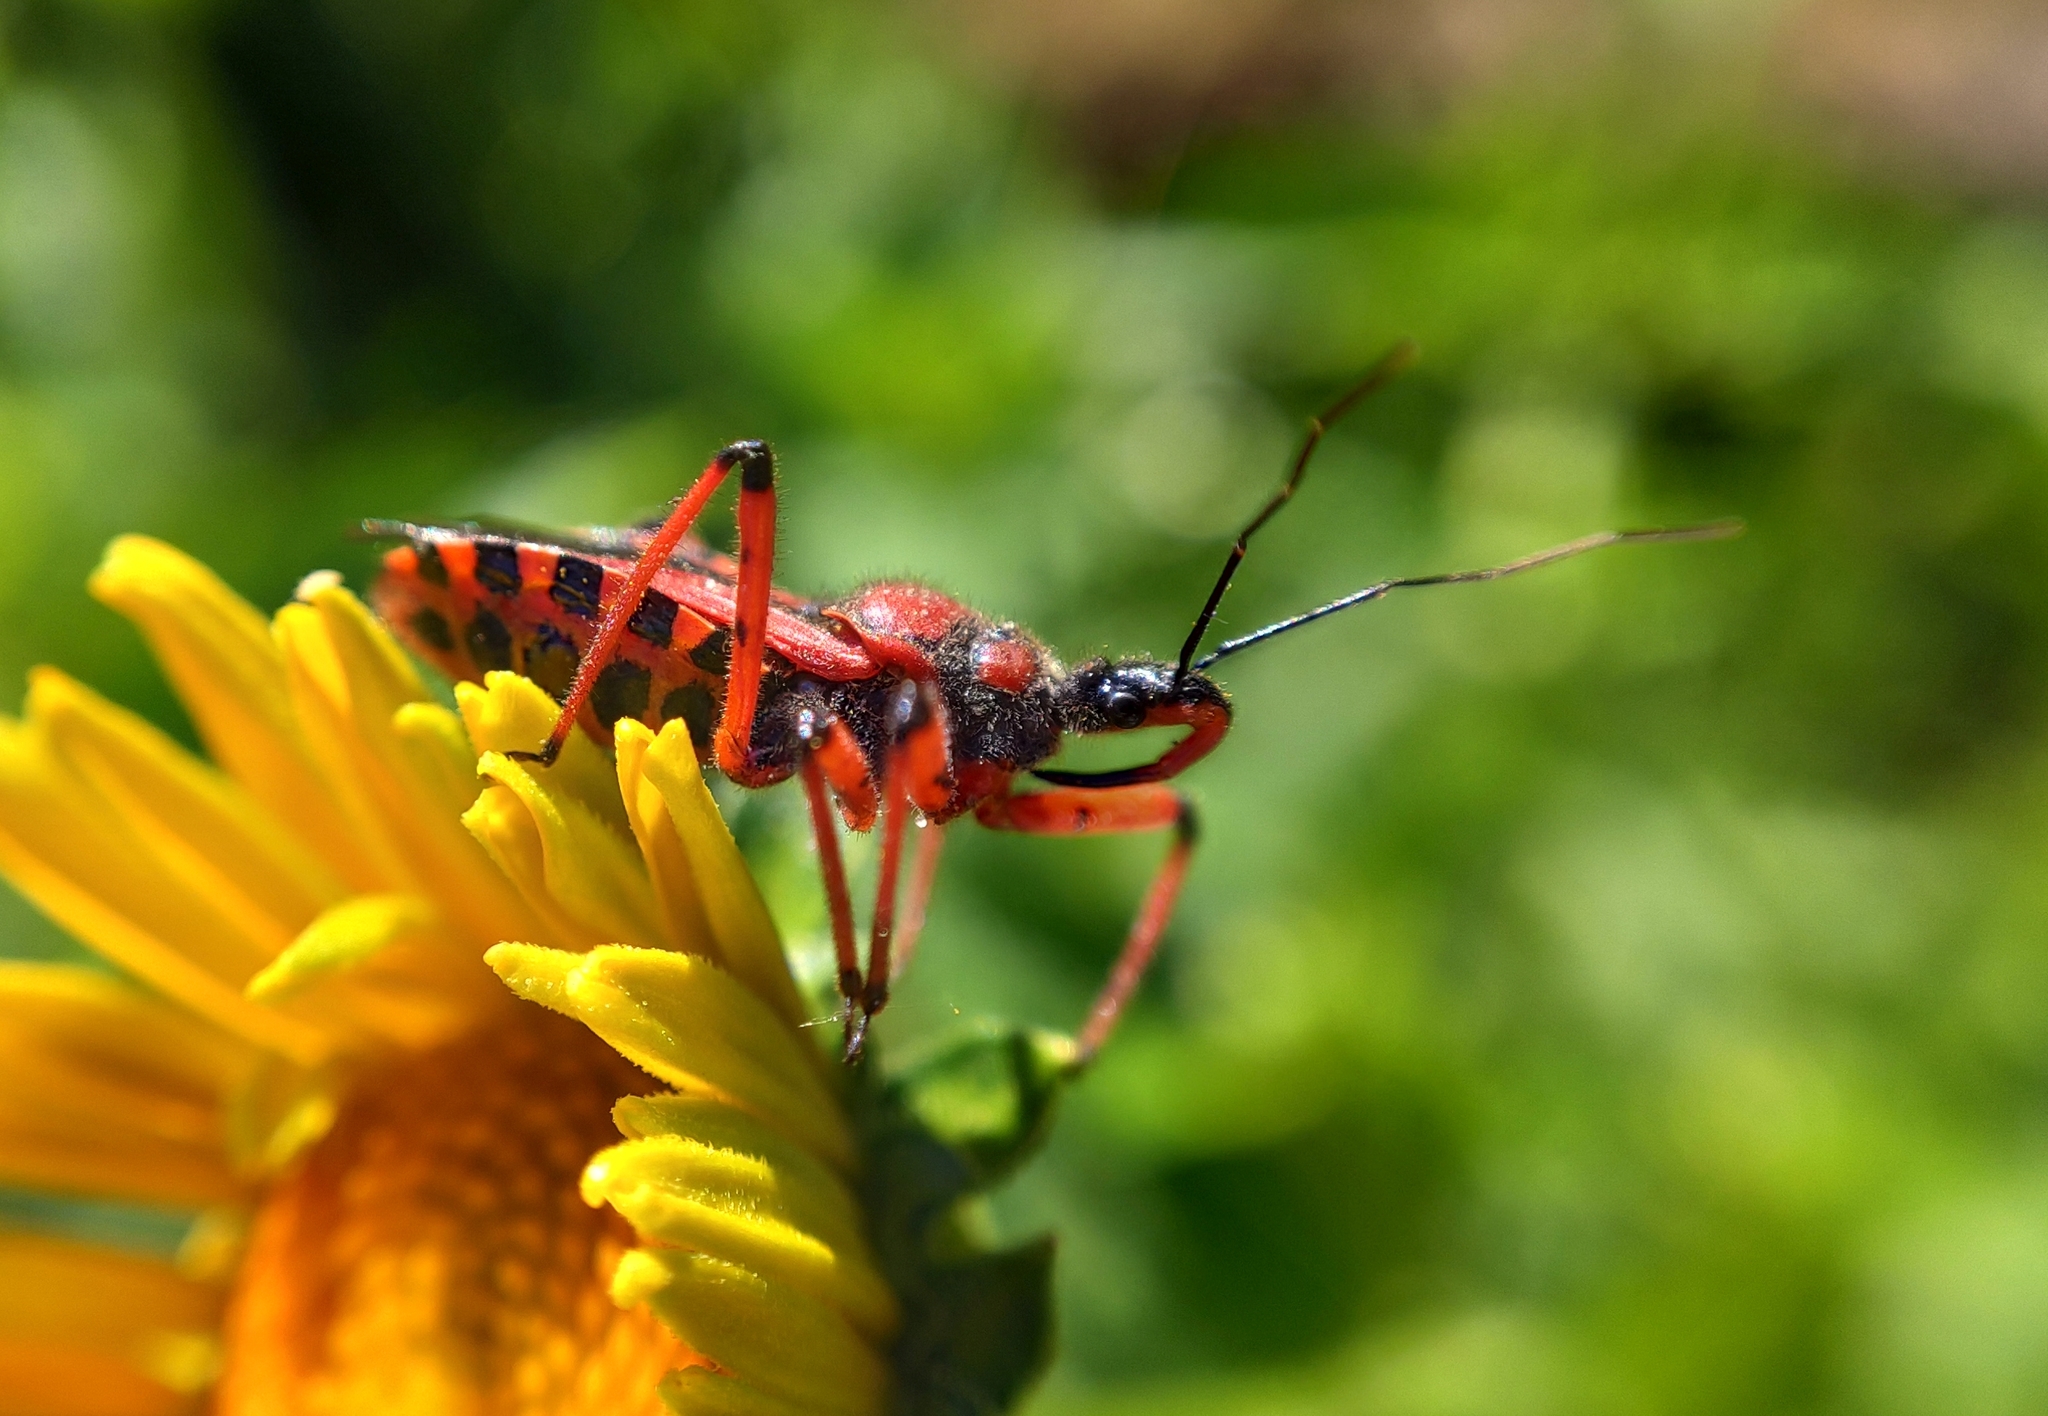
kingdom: Animalia
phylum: Arthropoda
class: Insecta
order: Hemiptera
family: Reduviidae
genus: Rhynocoris
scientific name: Rhynocoris iracundus
